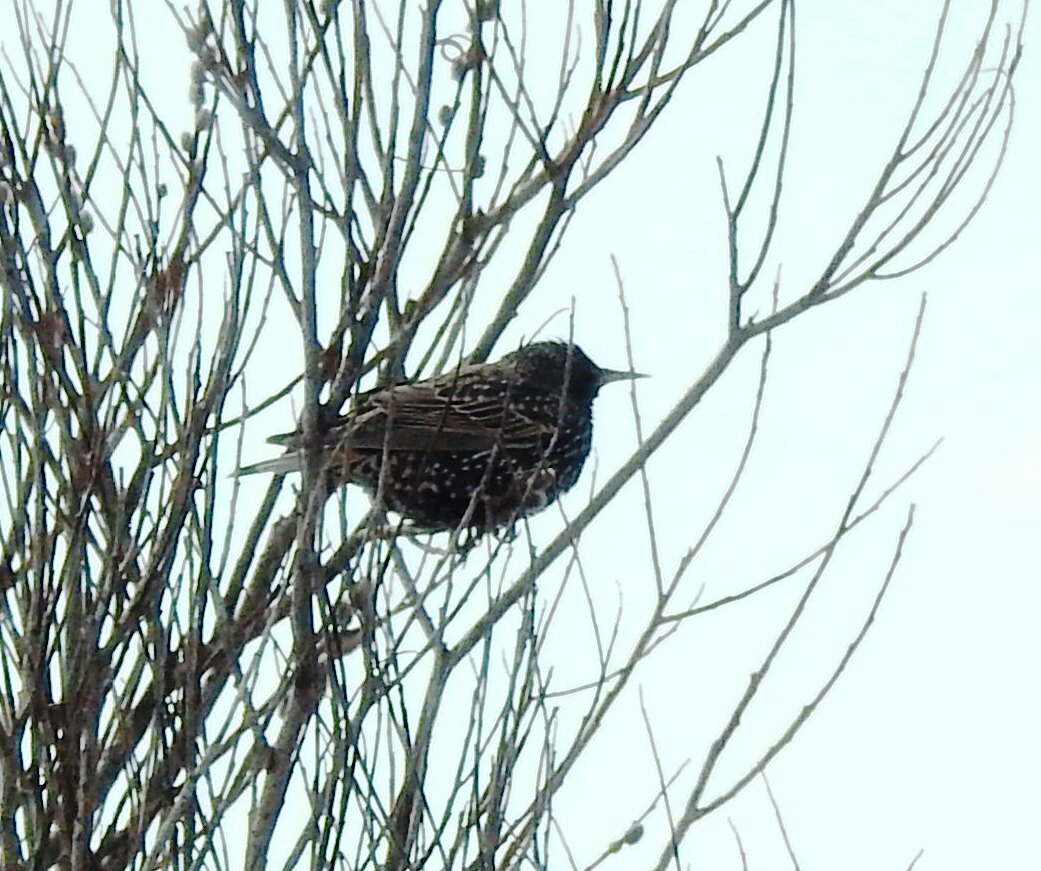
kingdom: Animalia
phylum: Chordata
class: Aves
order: Passeriformes
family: Sturnidae
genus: Sturnus
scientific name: Sturnus vulgaris
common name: Common starling
